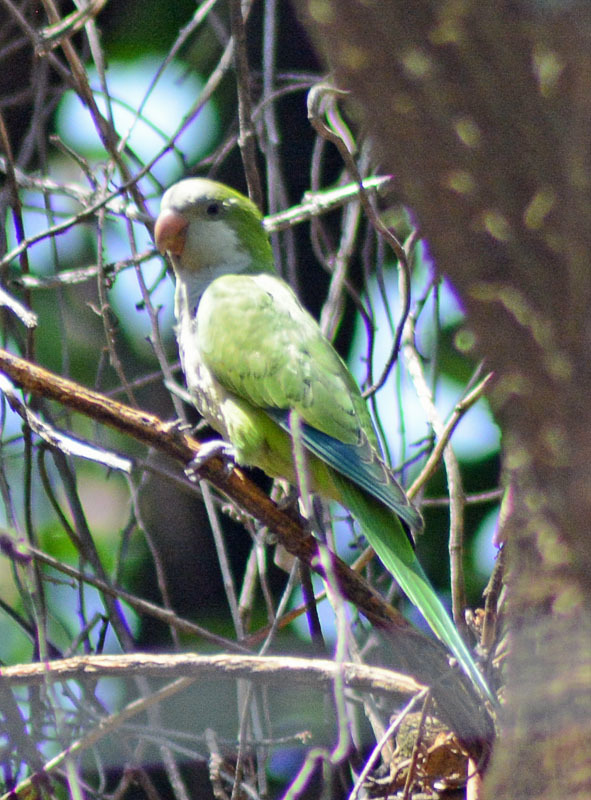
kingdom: Animalia
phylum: Chordata
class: Aves
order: Psittaciformes
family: Psittacidae
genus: Myiopsitta
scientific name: Myiopsitta monachus
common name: Monk parakeet
